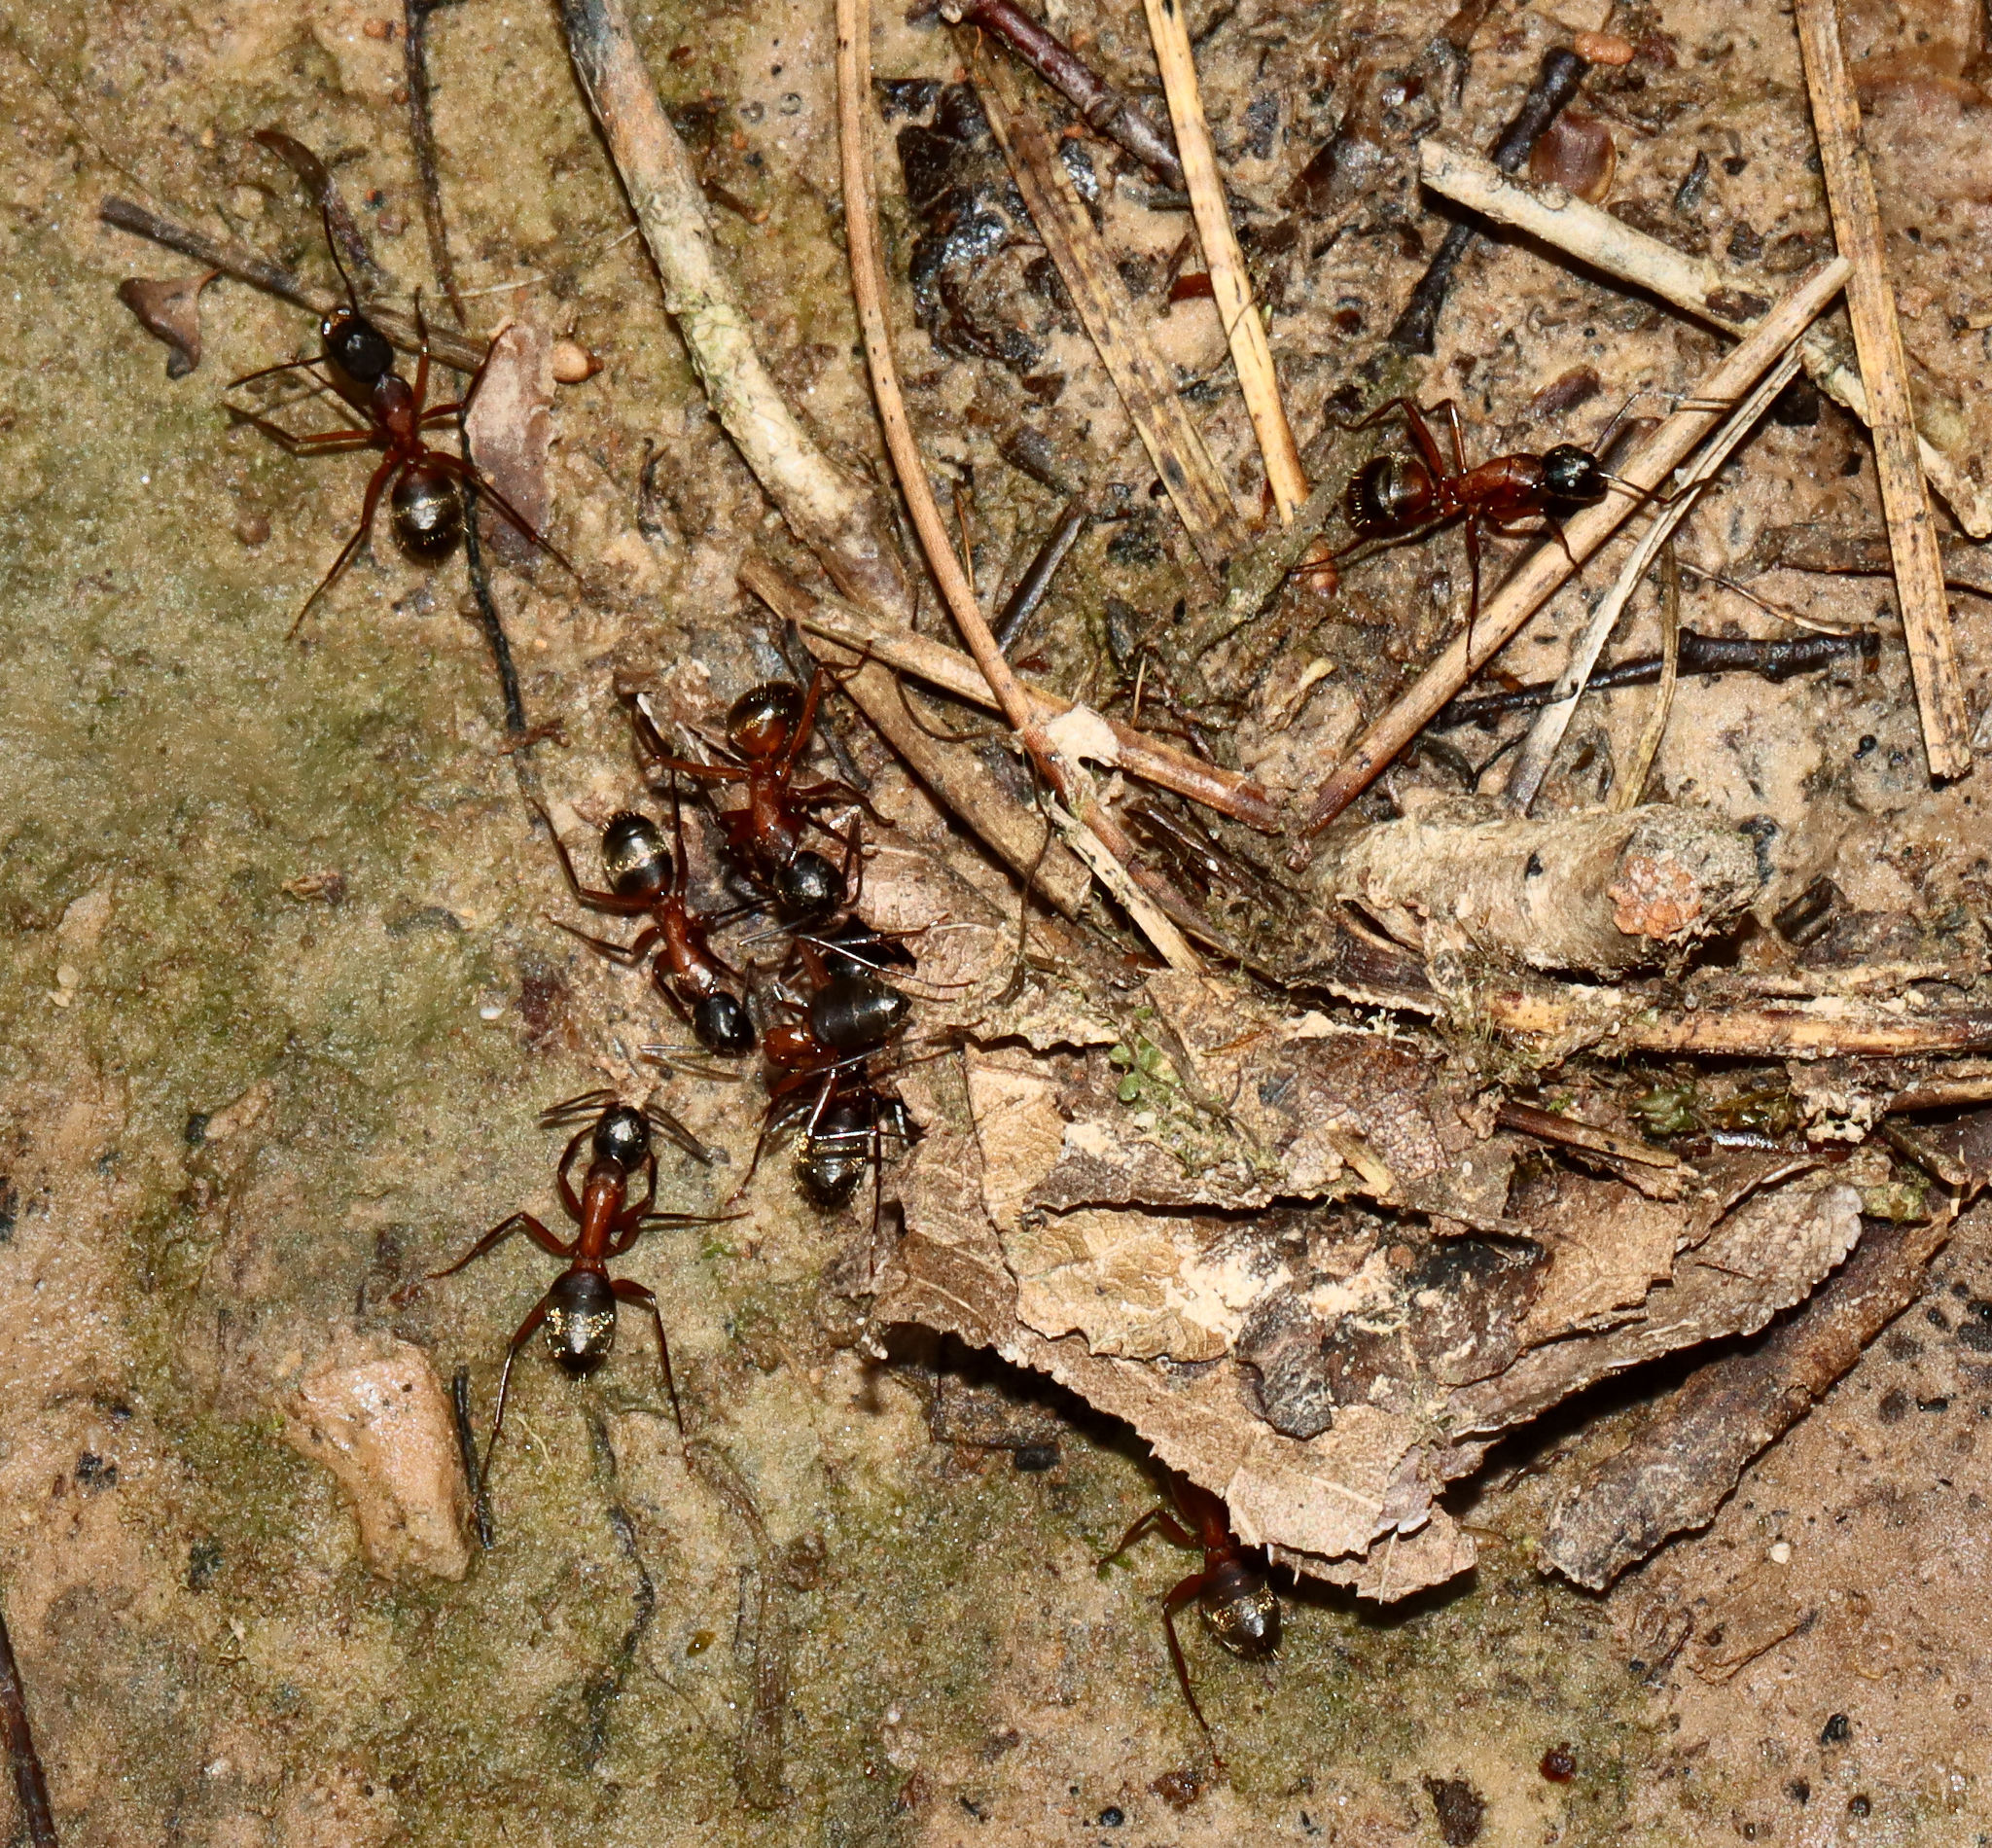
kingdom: Animalia
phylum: Arthropoda
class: Insecta
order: Hymenoptera
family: Formicidae
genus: Camponotus
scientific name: Camponotus chromaiodes
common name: Red carpenter ant
